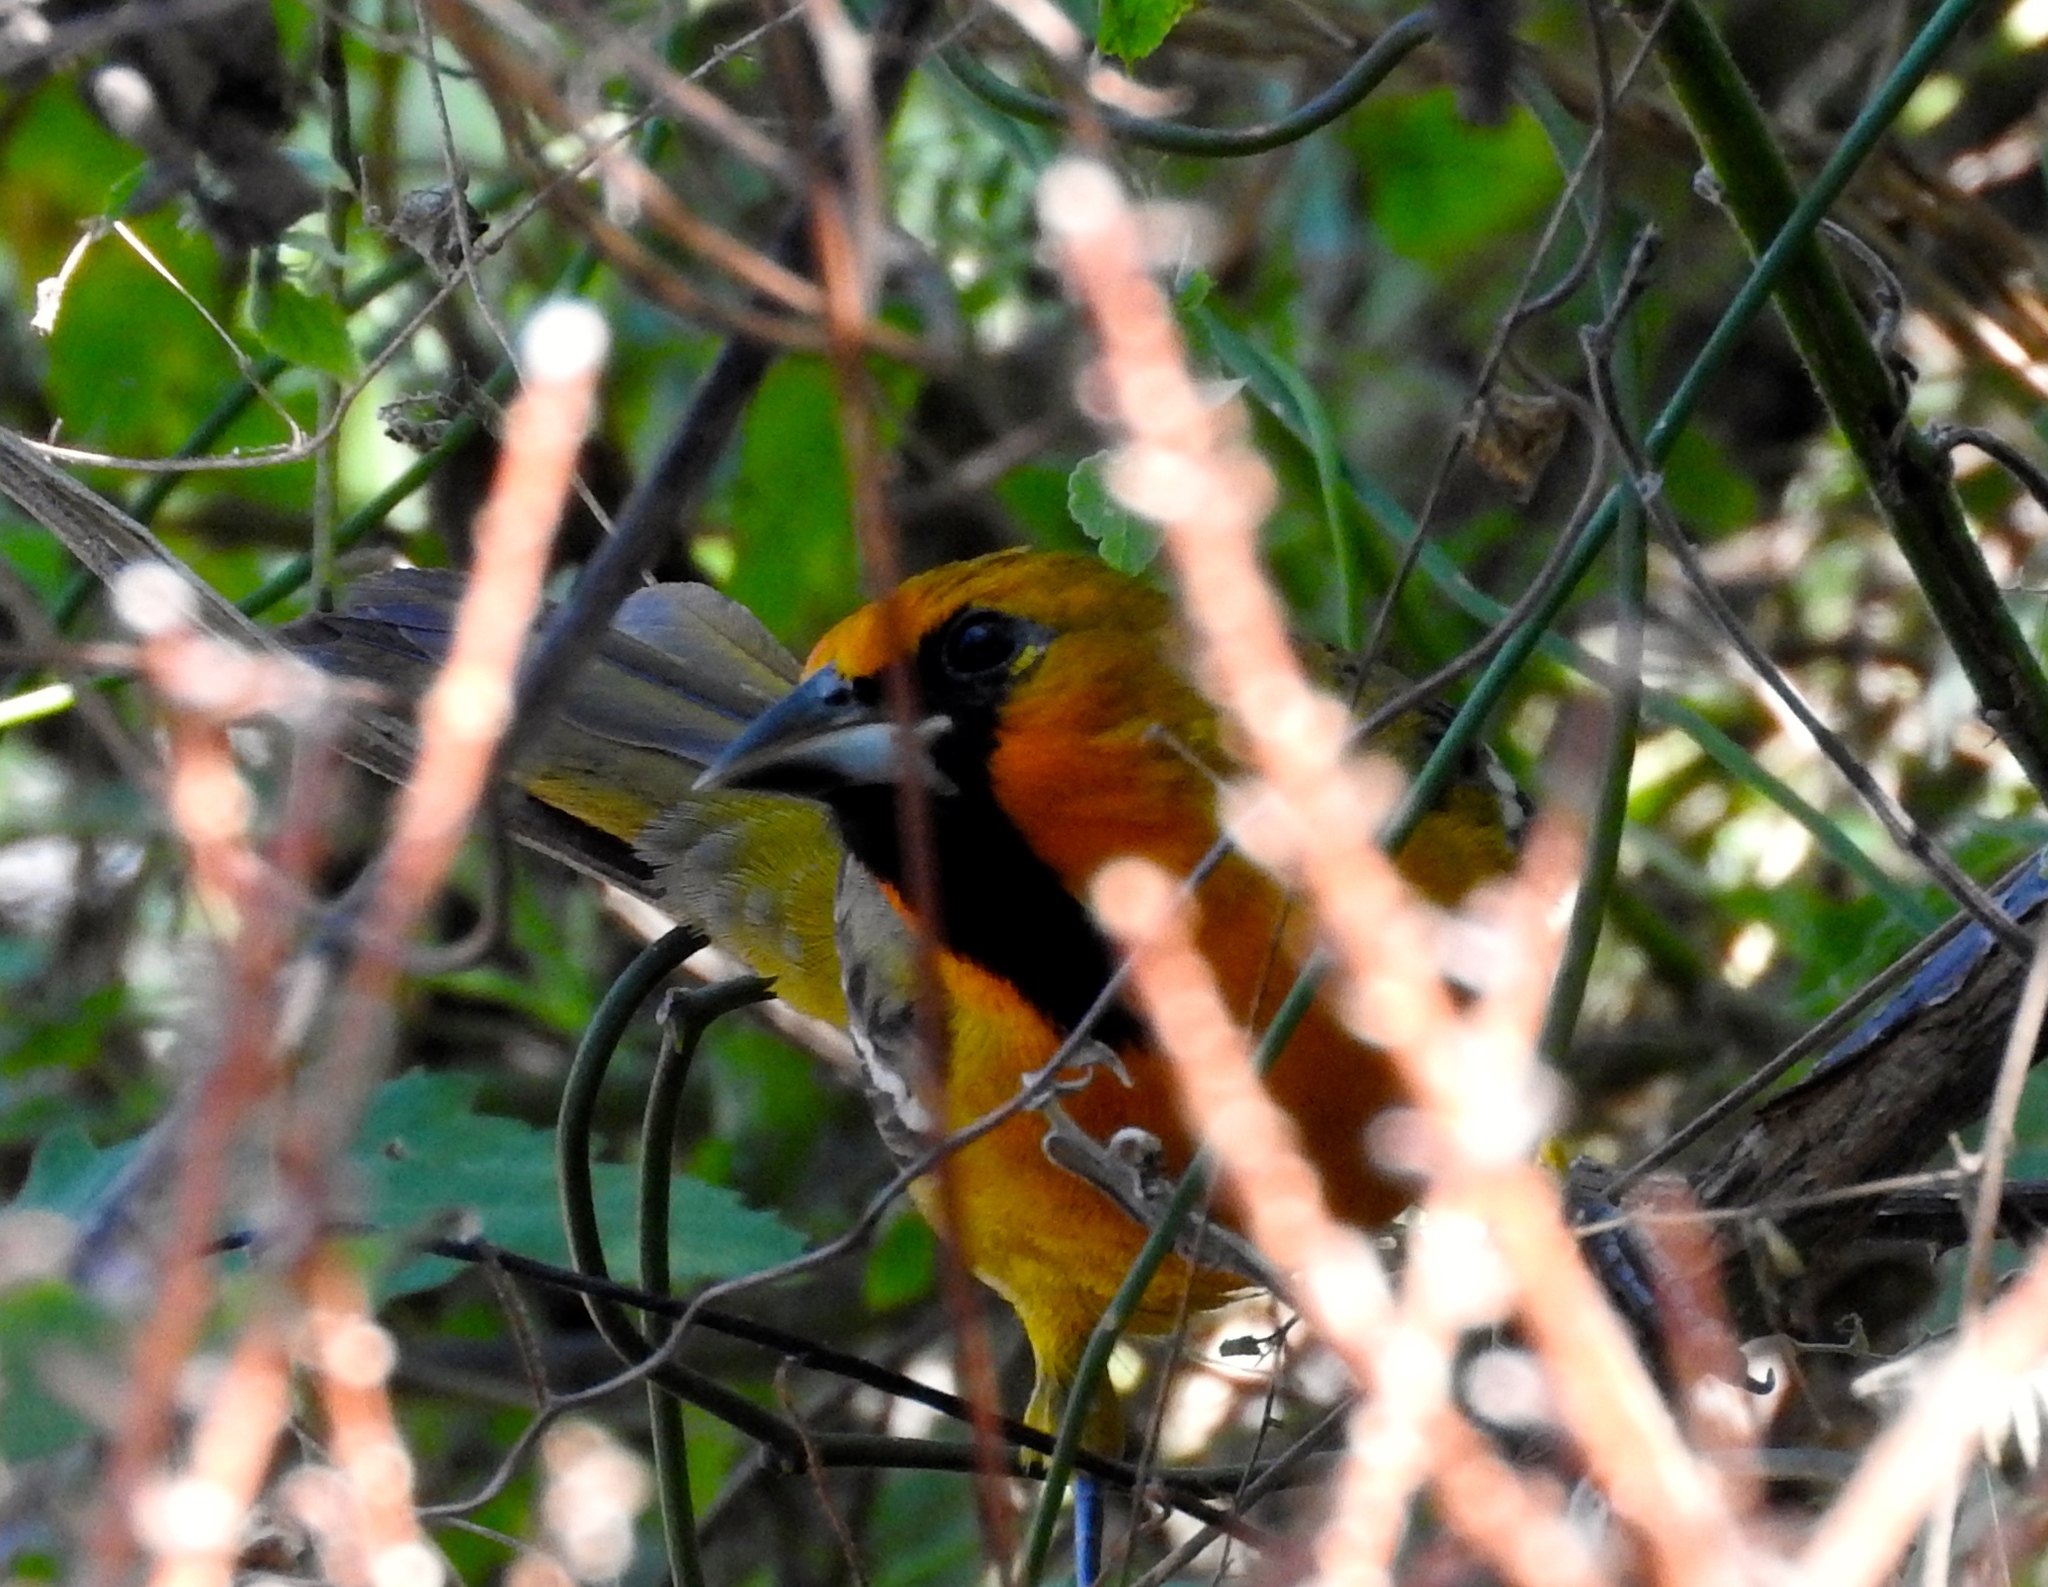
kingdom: Animalia
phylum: Chordata
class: Aves
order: Passeriformes
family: Icteridae
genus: Icterus
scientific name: Icterus pustulatus
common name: Streak-backed oriole
